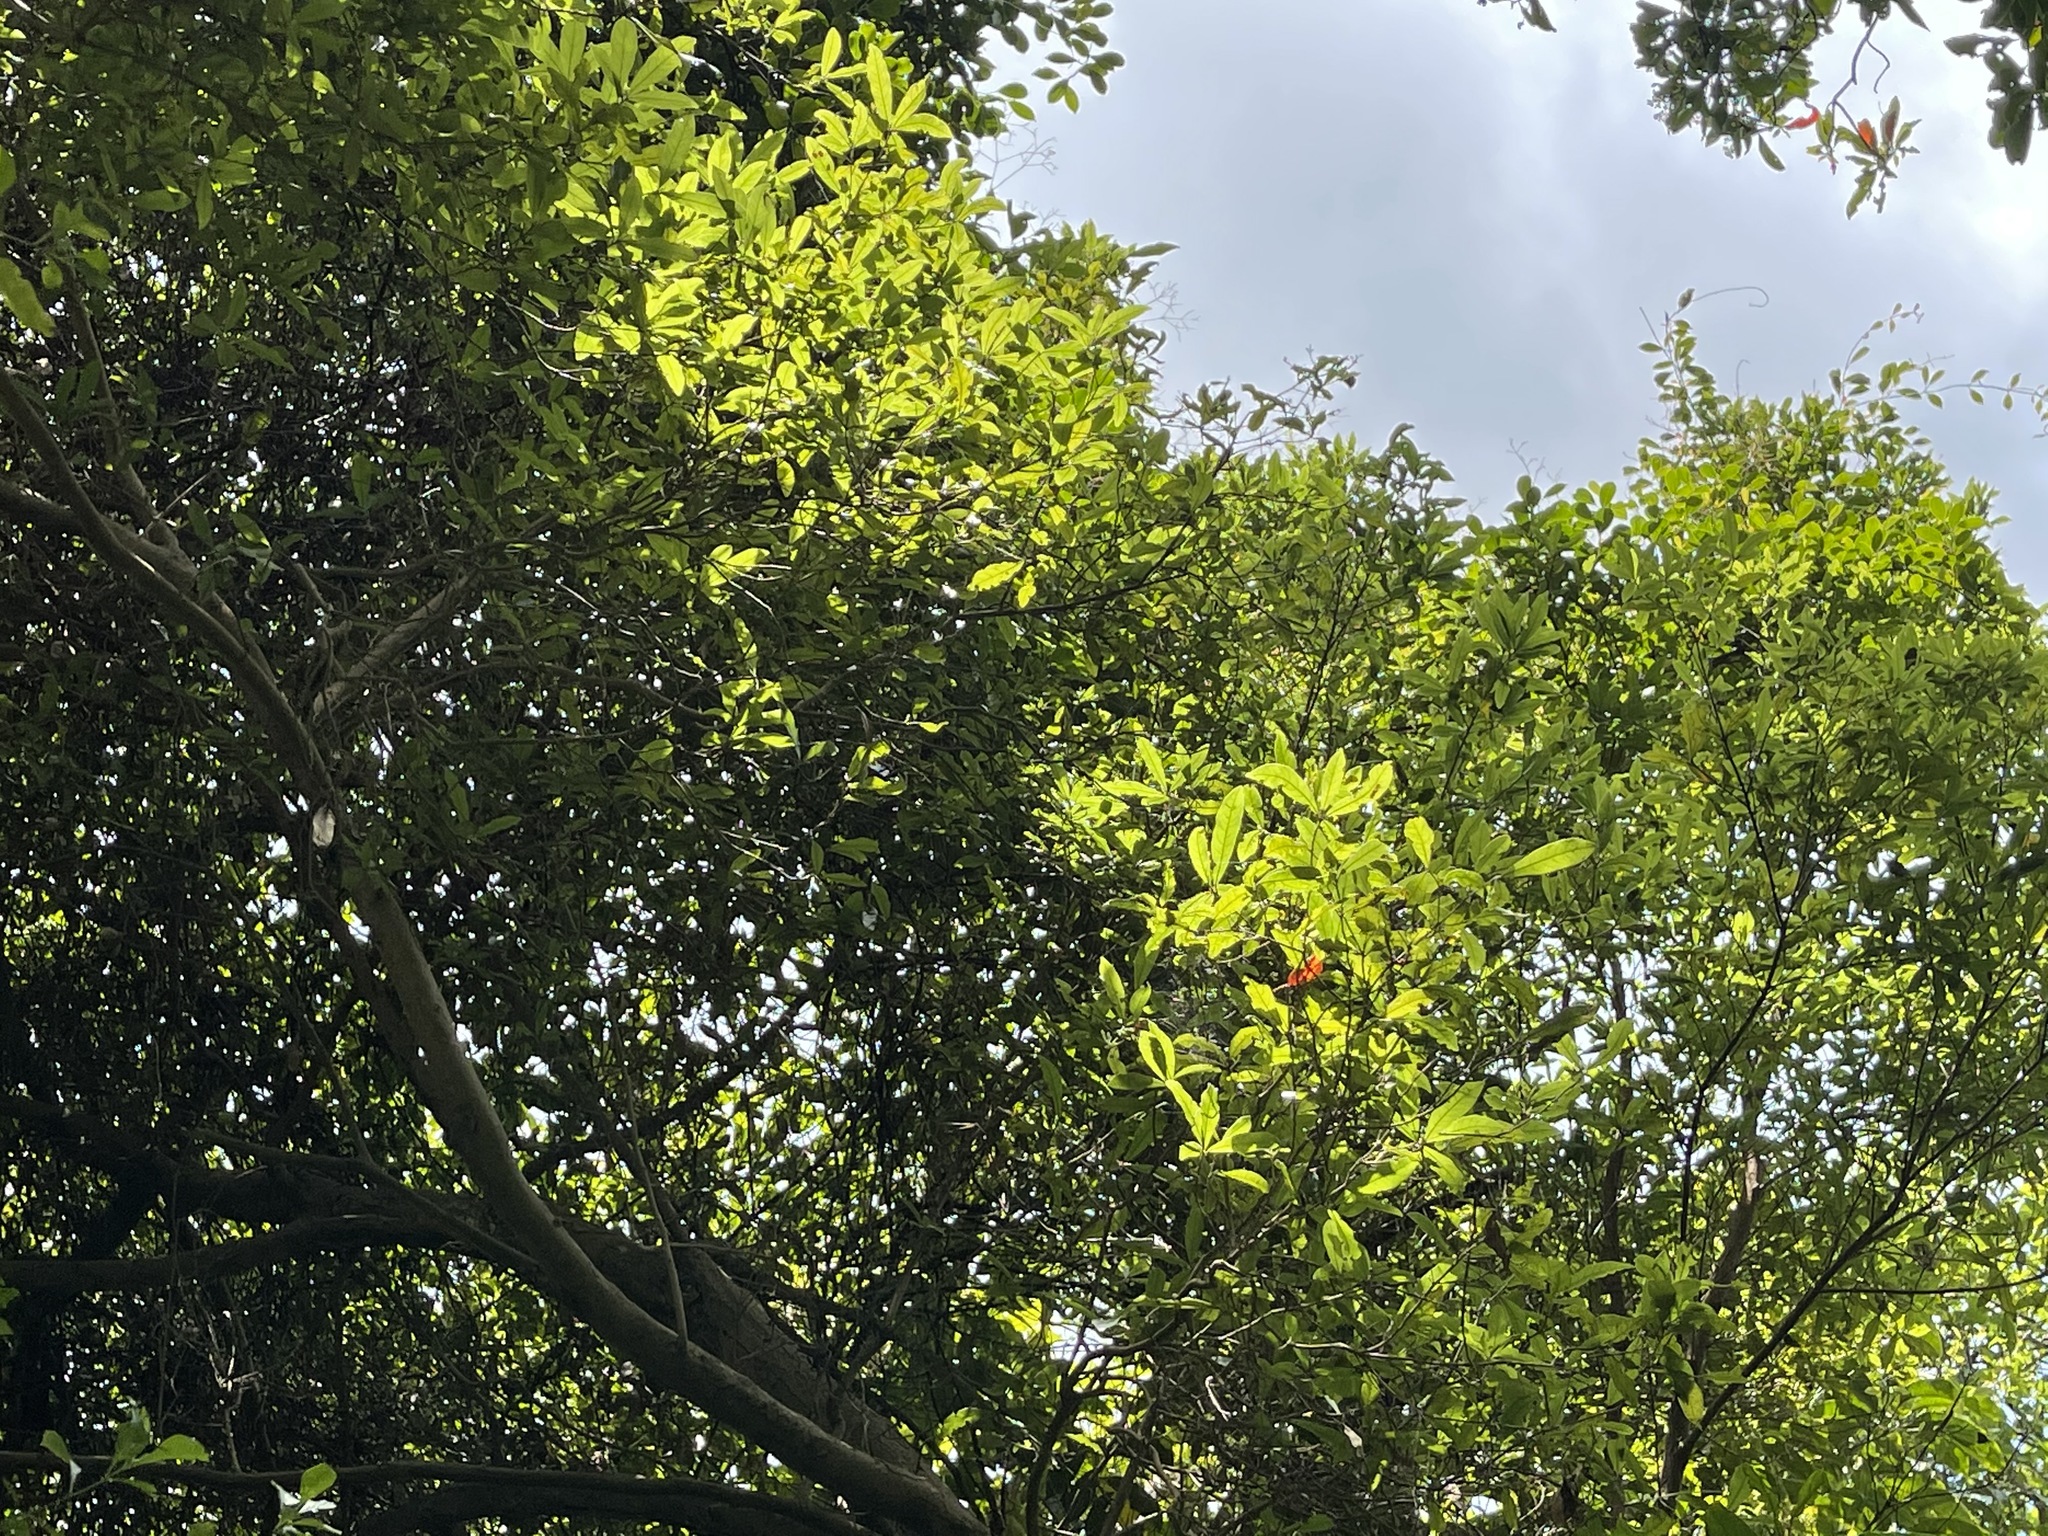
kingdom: Plantae
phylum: Tracheophyta
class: Magnoliopsida
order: Laurales
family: Lauraceae
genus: Litsea
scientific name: Litsea hypophaea
